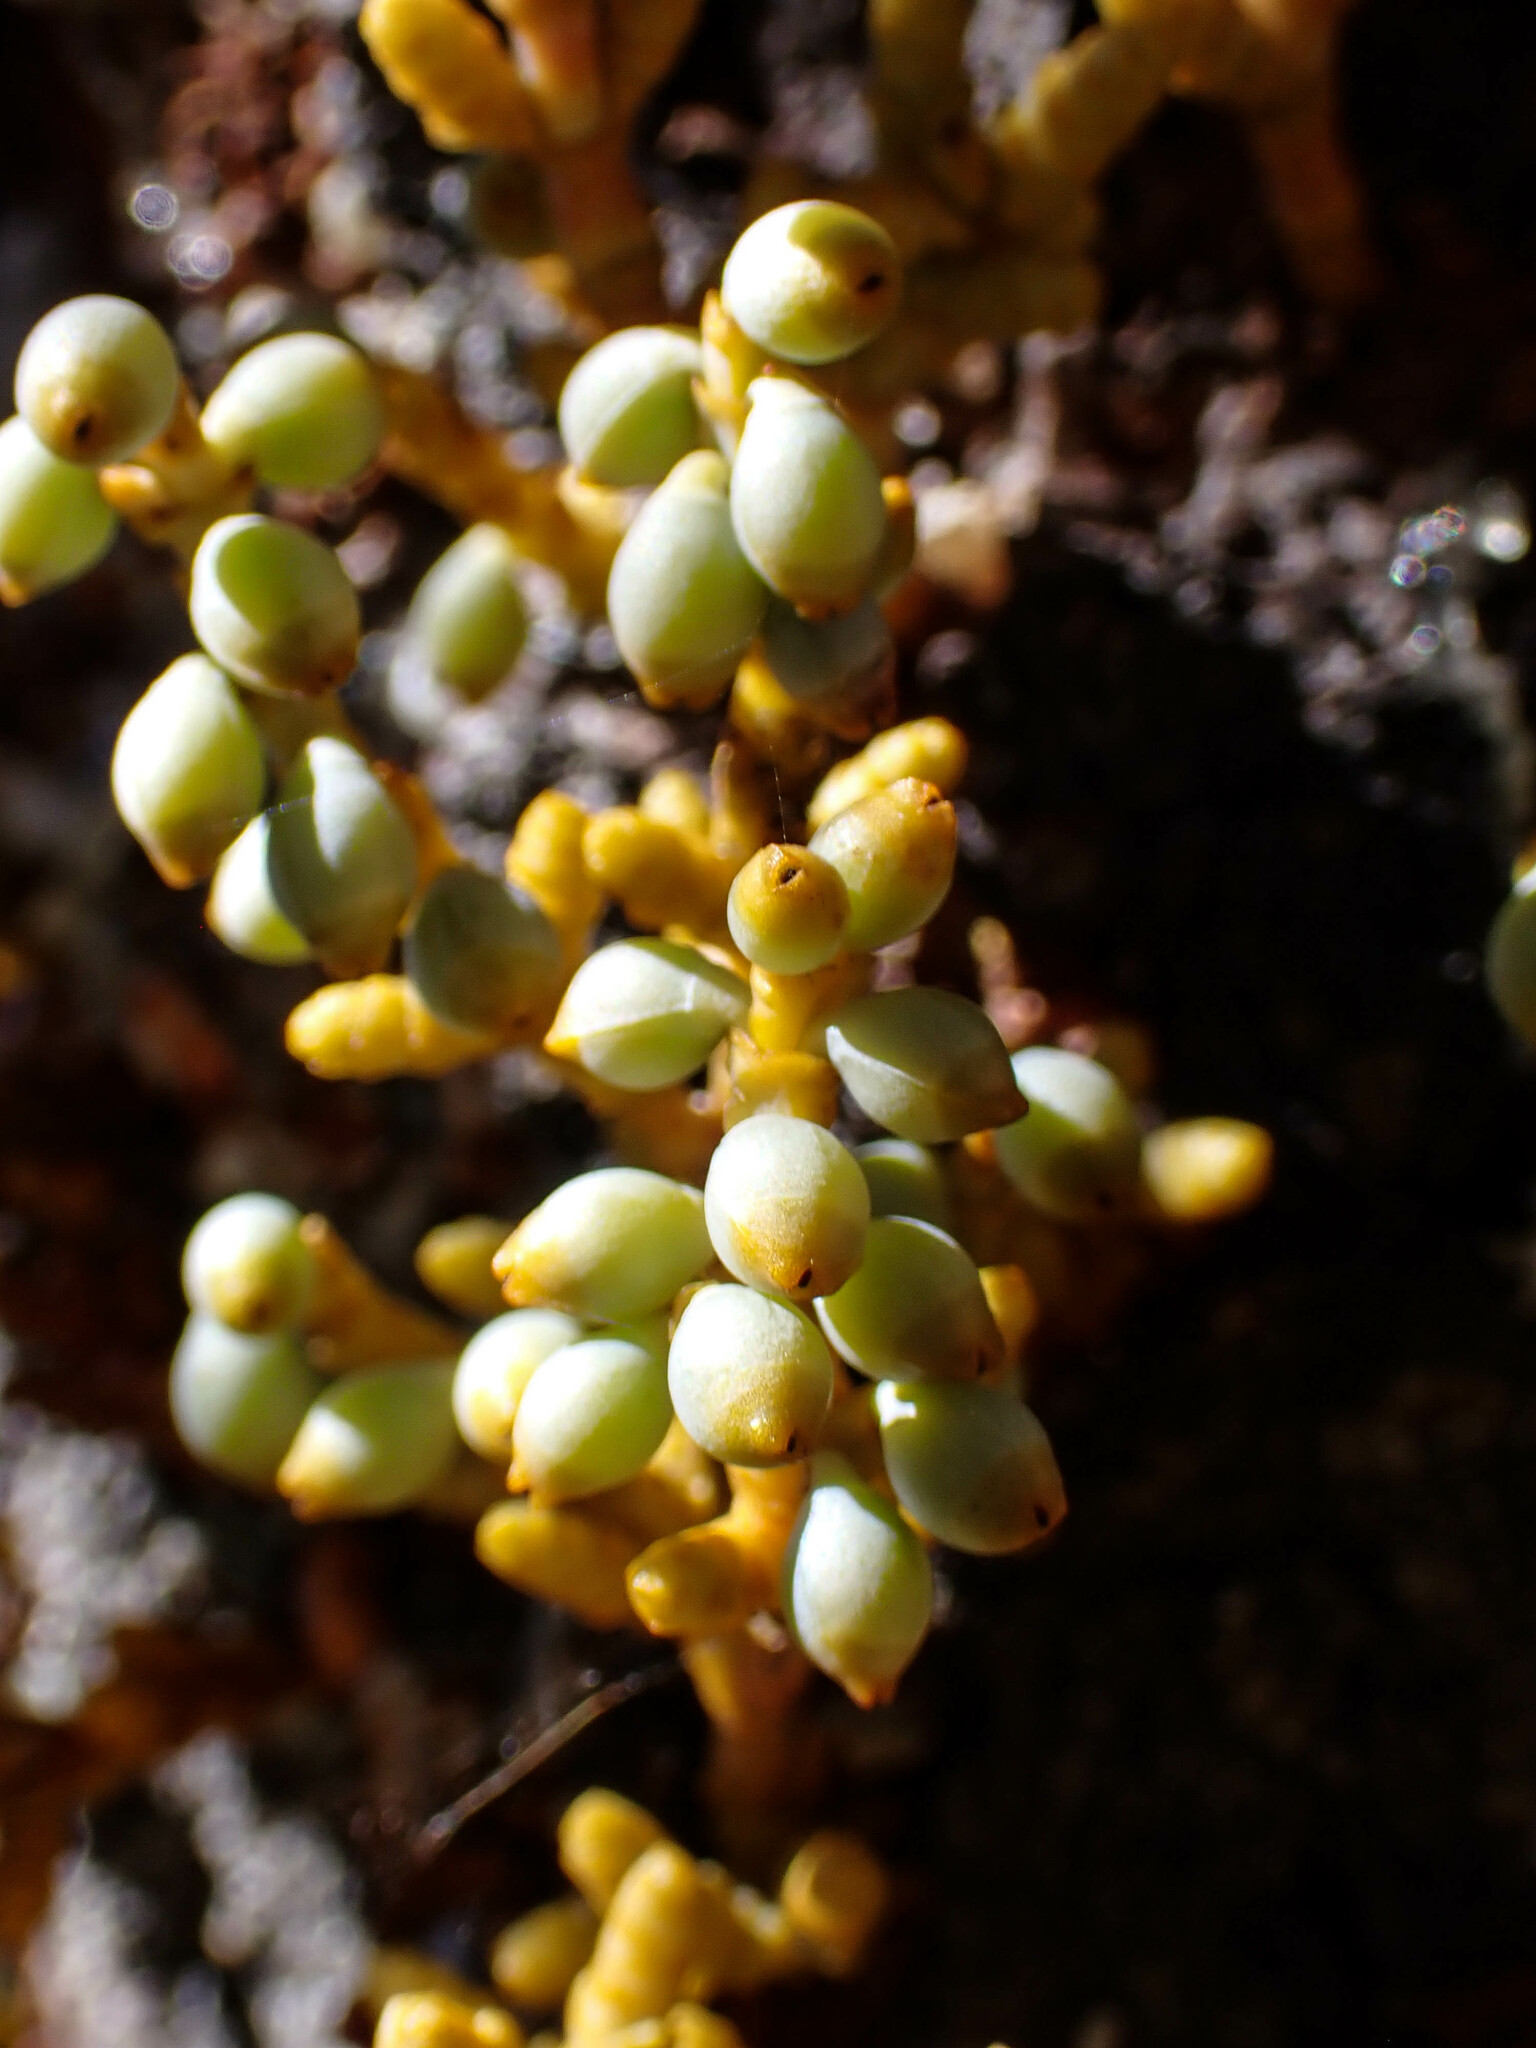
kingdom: Plantae
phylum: Tracheophyta
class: Magnoliopsida
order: Santalales
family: Viscaceae
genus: Arceuthobium
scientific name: Arceuthobium campylopodum
